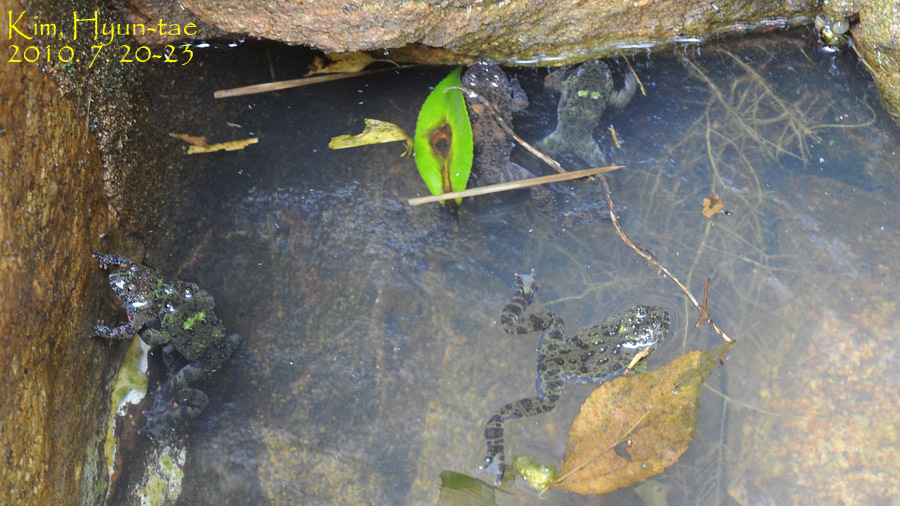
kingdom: Animalia
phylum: Chordata
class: Amphibia
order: Anura
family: Bombinatoridae
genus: Bombina
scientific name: Bombina orientalis
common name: Oriental firebelly toad
